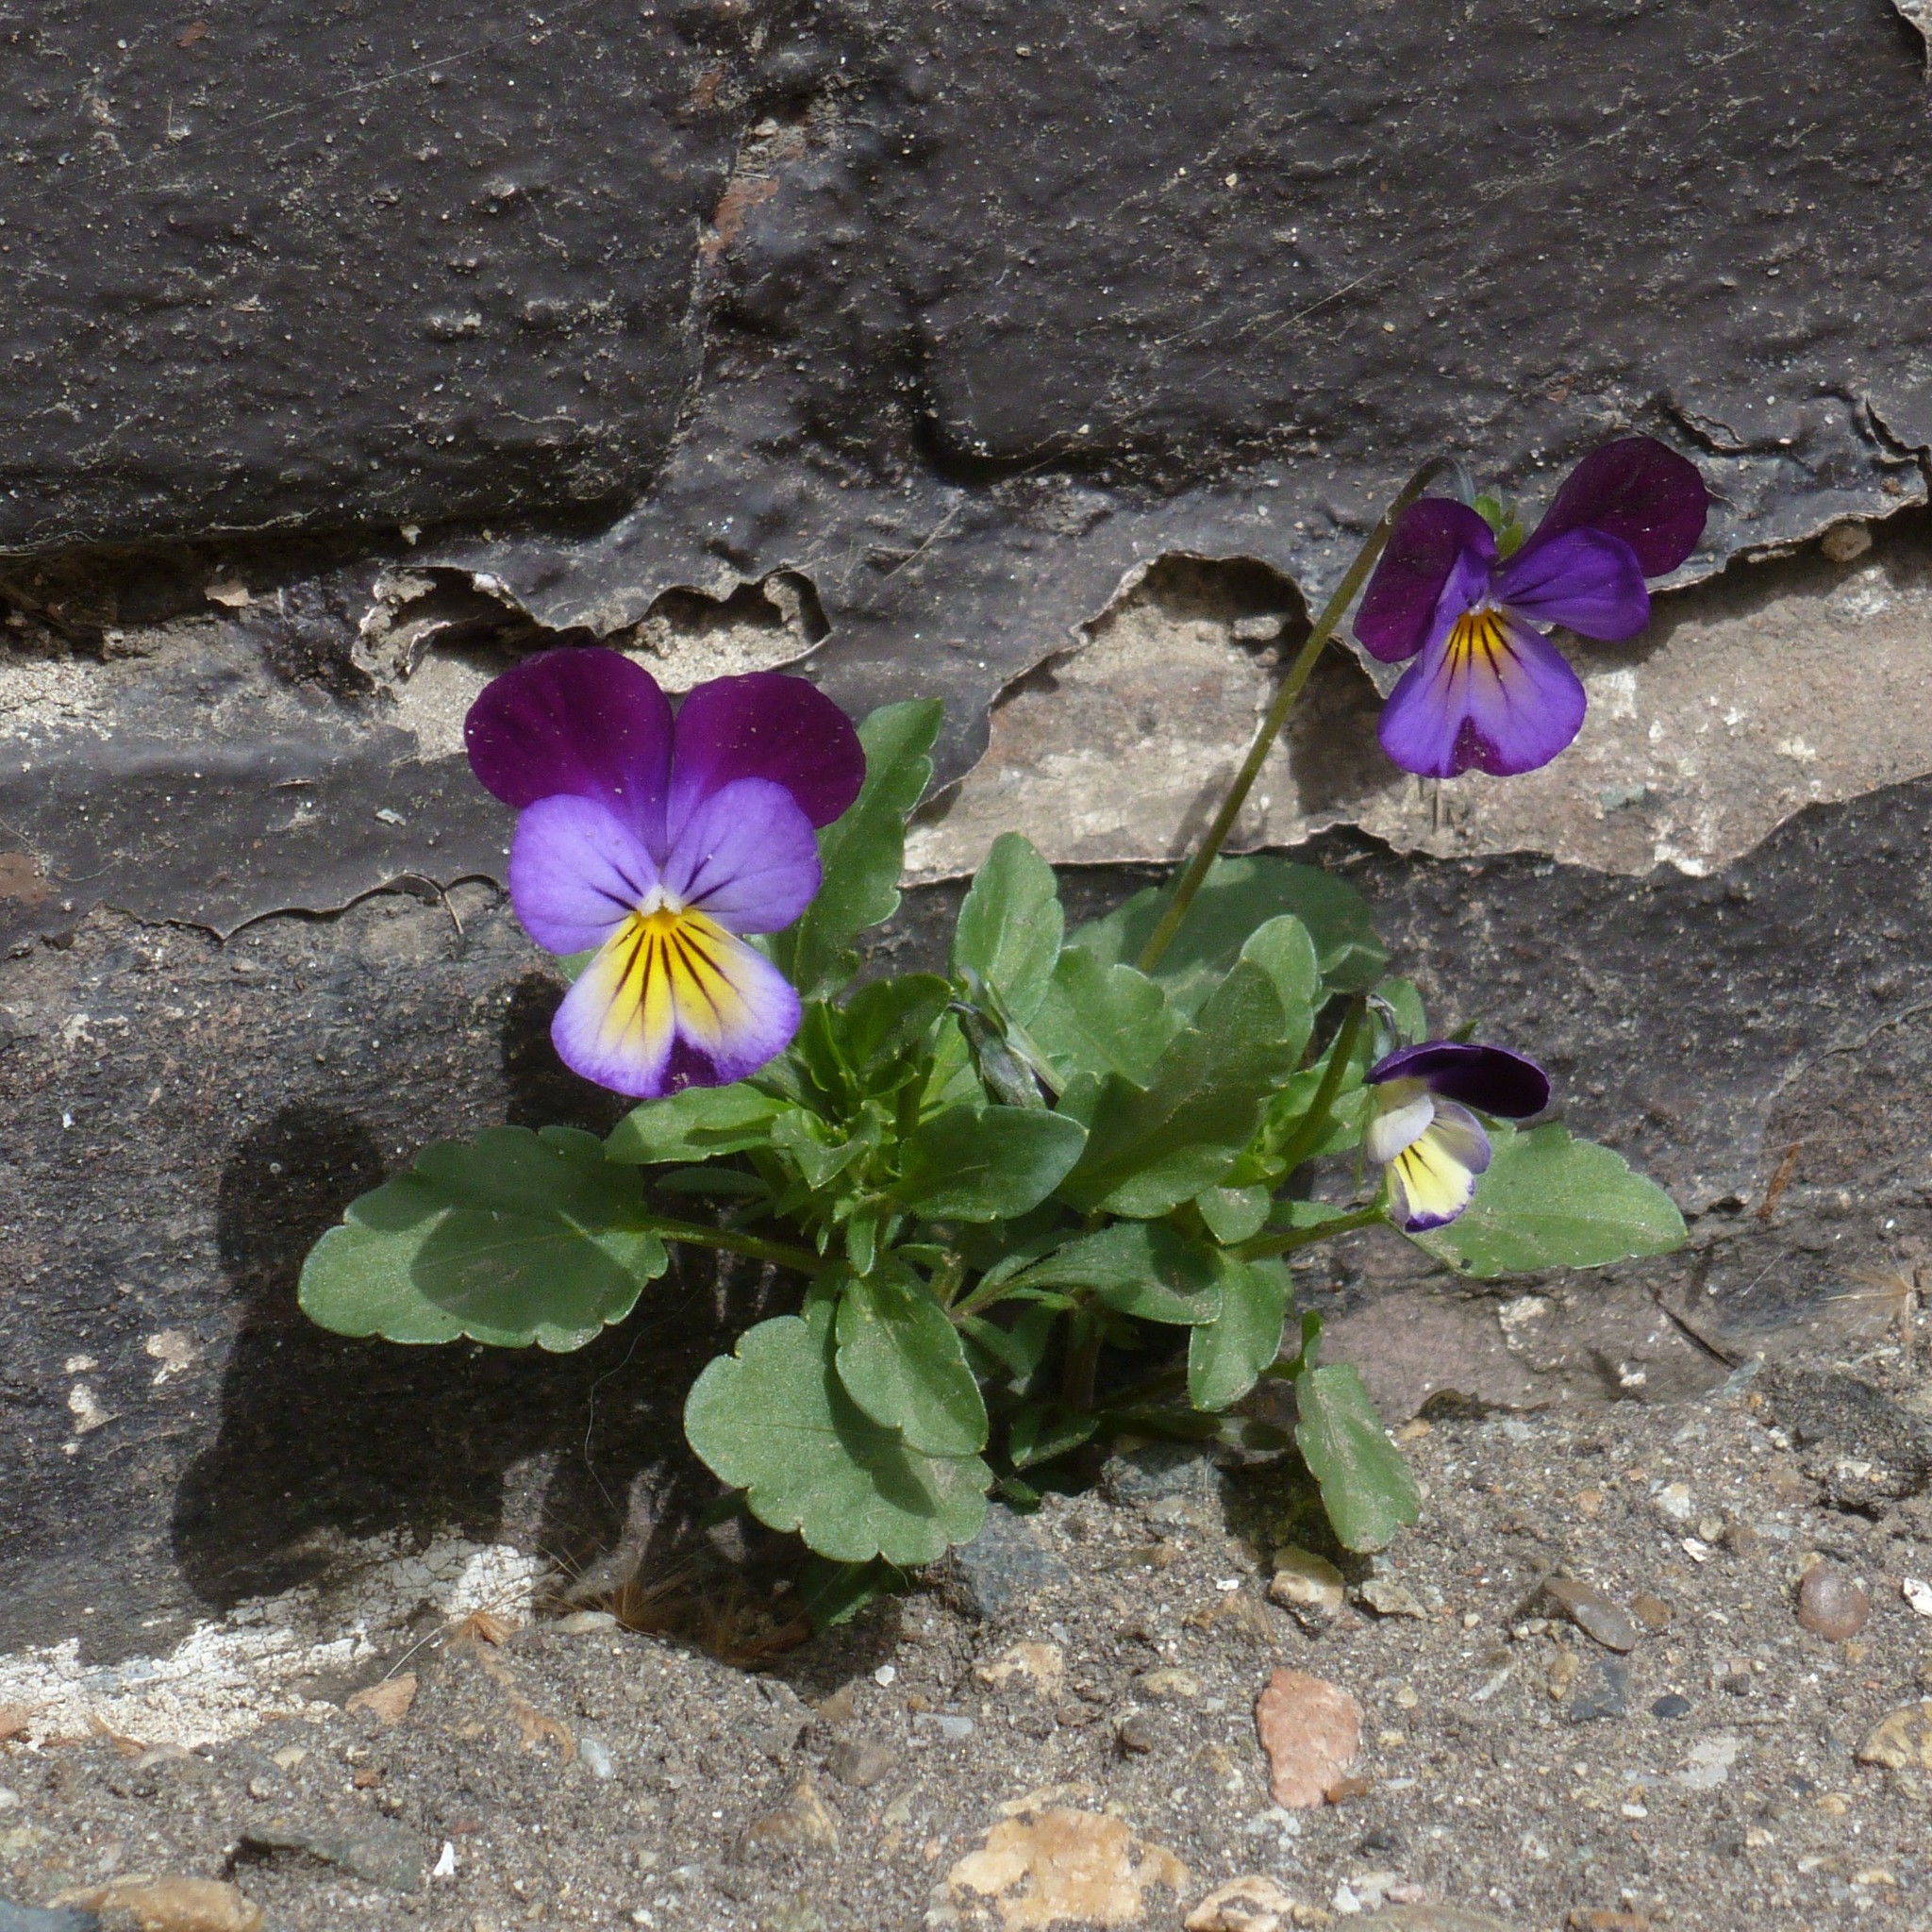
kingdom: Plantae
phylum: Tracheophyta
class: Magnoliopsida
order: Malpighiales
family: Violaceae
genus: Viola
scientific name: Viola wittrockiana
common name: Garden pansy
